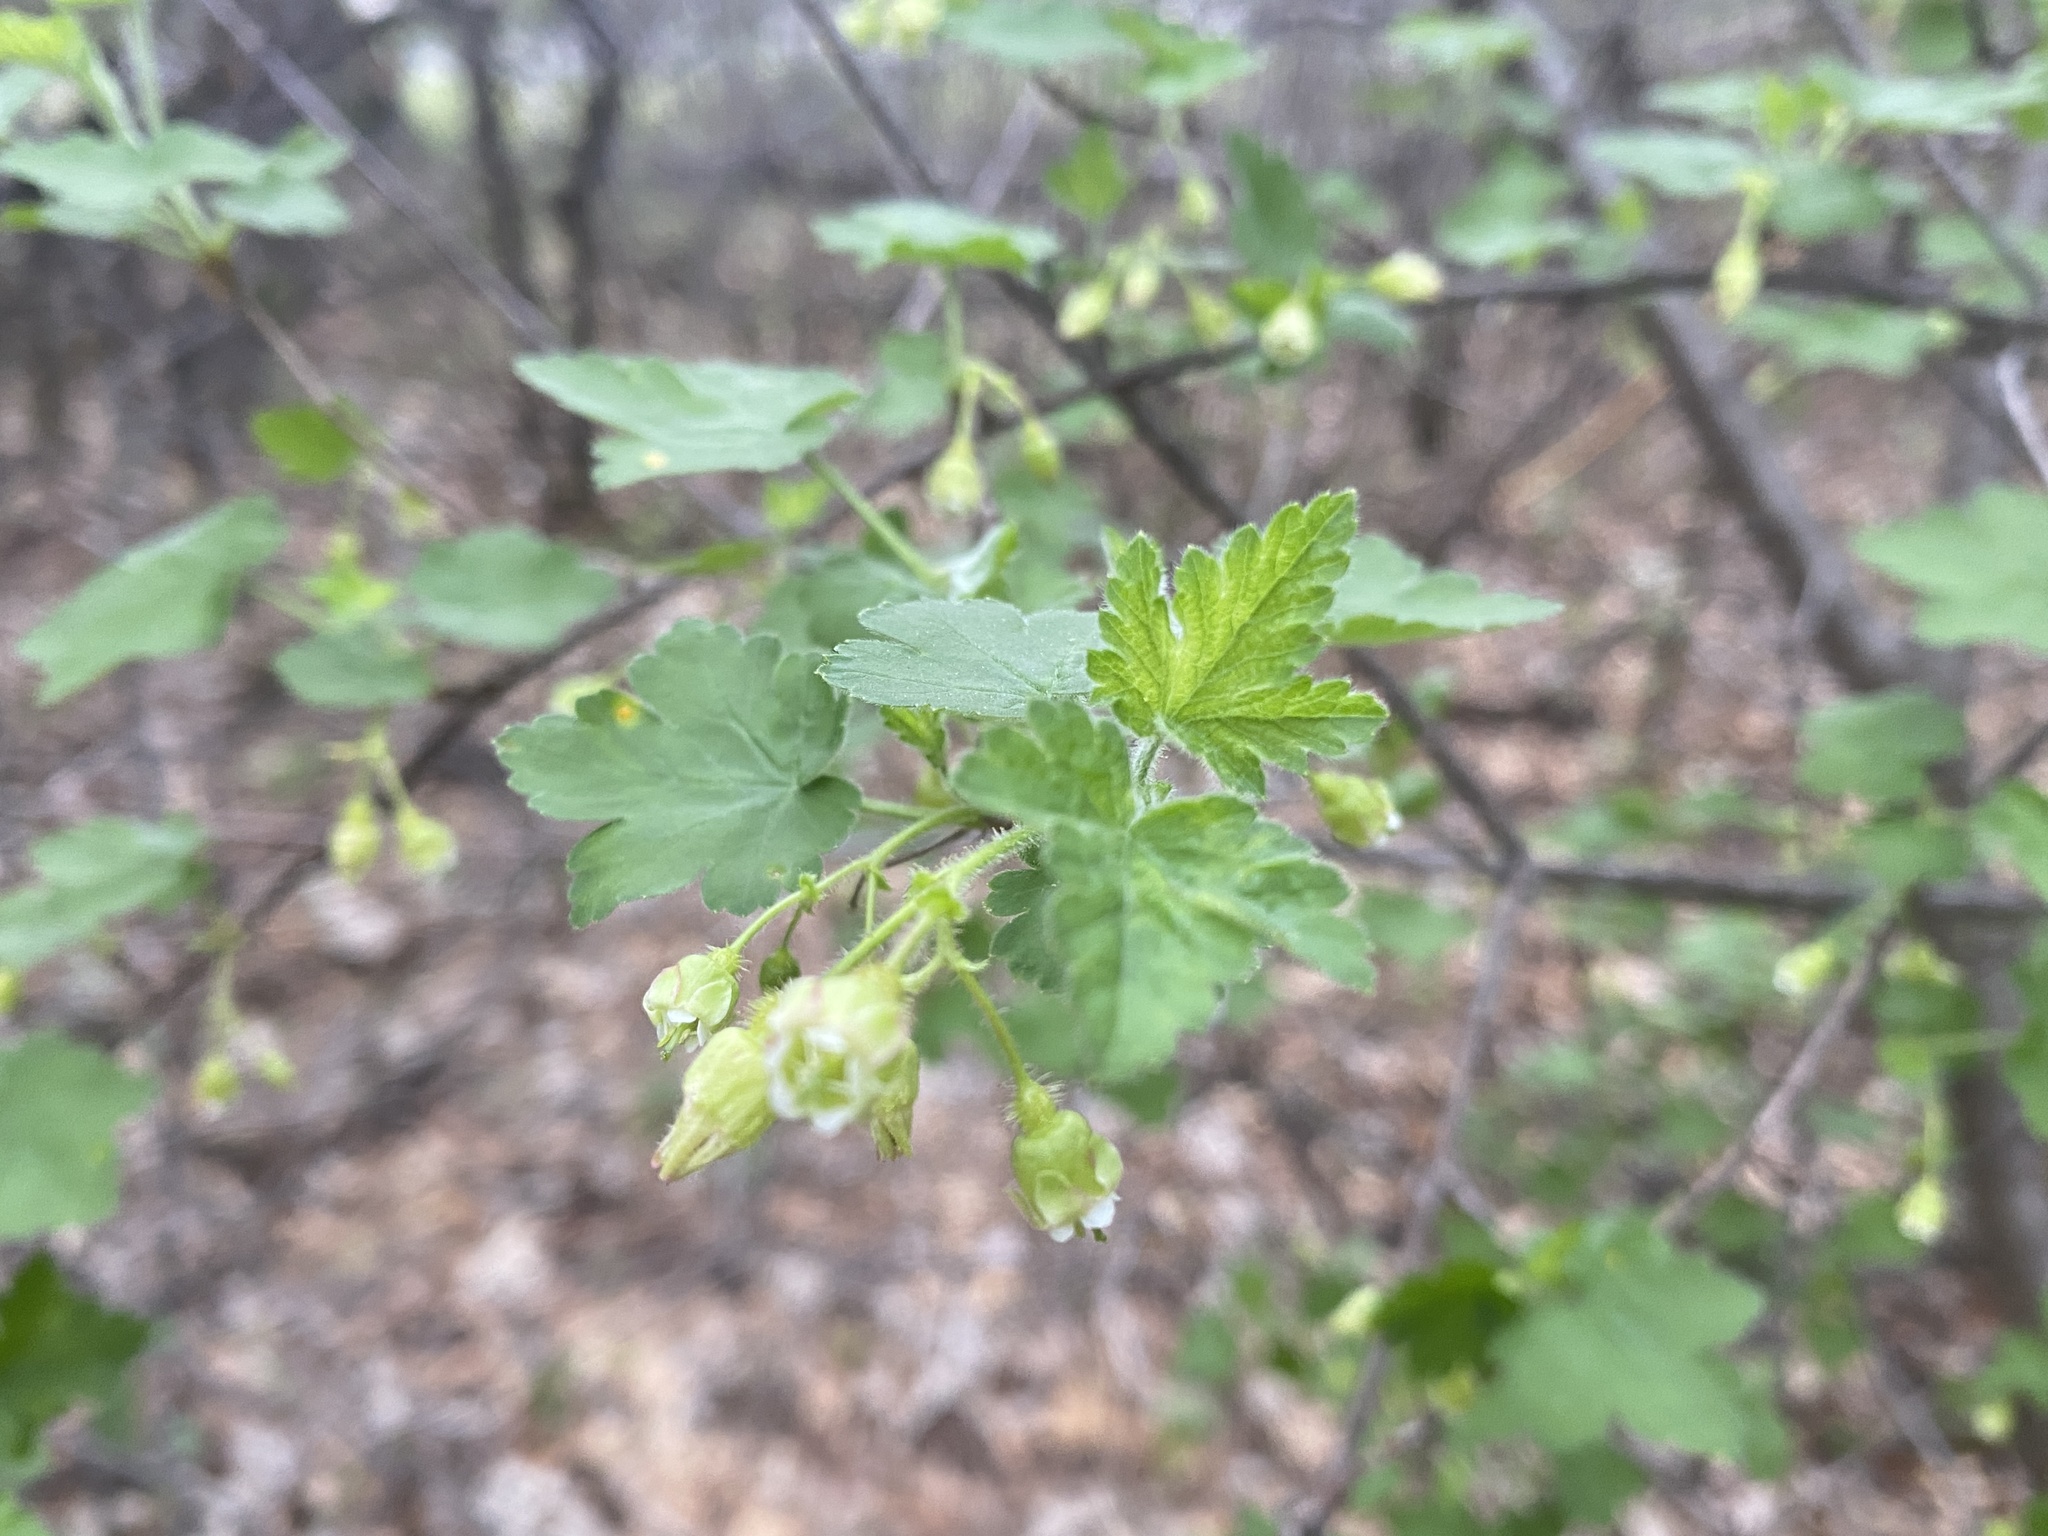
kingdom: Plantae
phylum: Tracheophyta
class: Magnoliopsida
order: Saxifragales
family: Grossulariaceae
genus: Ribes
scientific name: Ribes cynosbati
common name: American gooseberry
